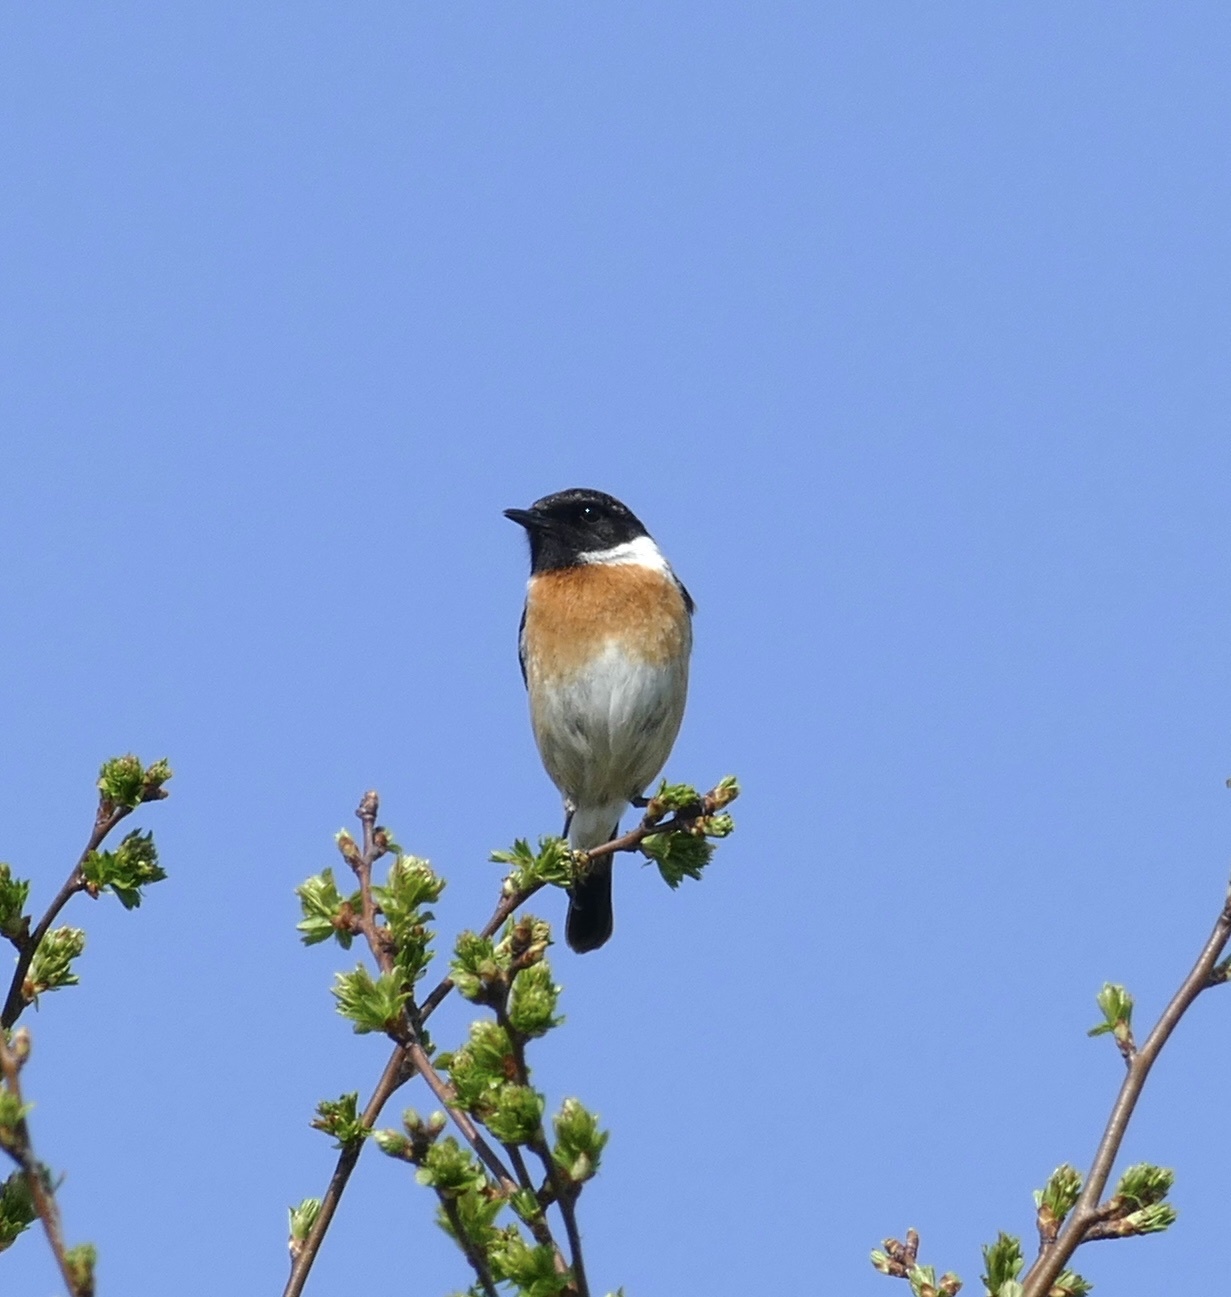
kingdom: Animalia
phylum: Chordata
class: Aves
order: Passeriformes
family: Muscicapidae
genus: Saxicola
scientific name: Saxicola rubicola
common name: European stonechat
